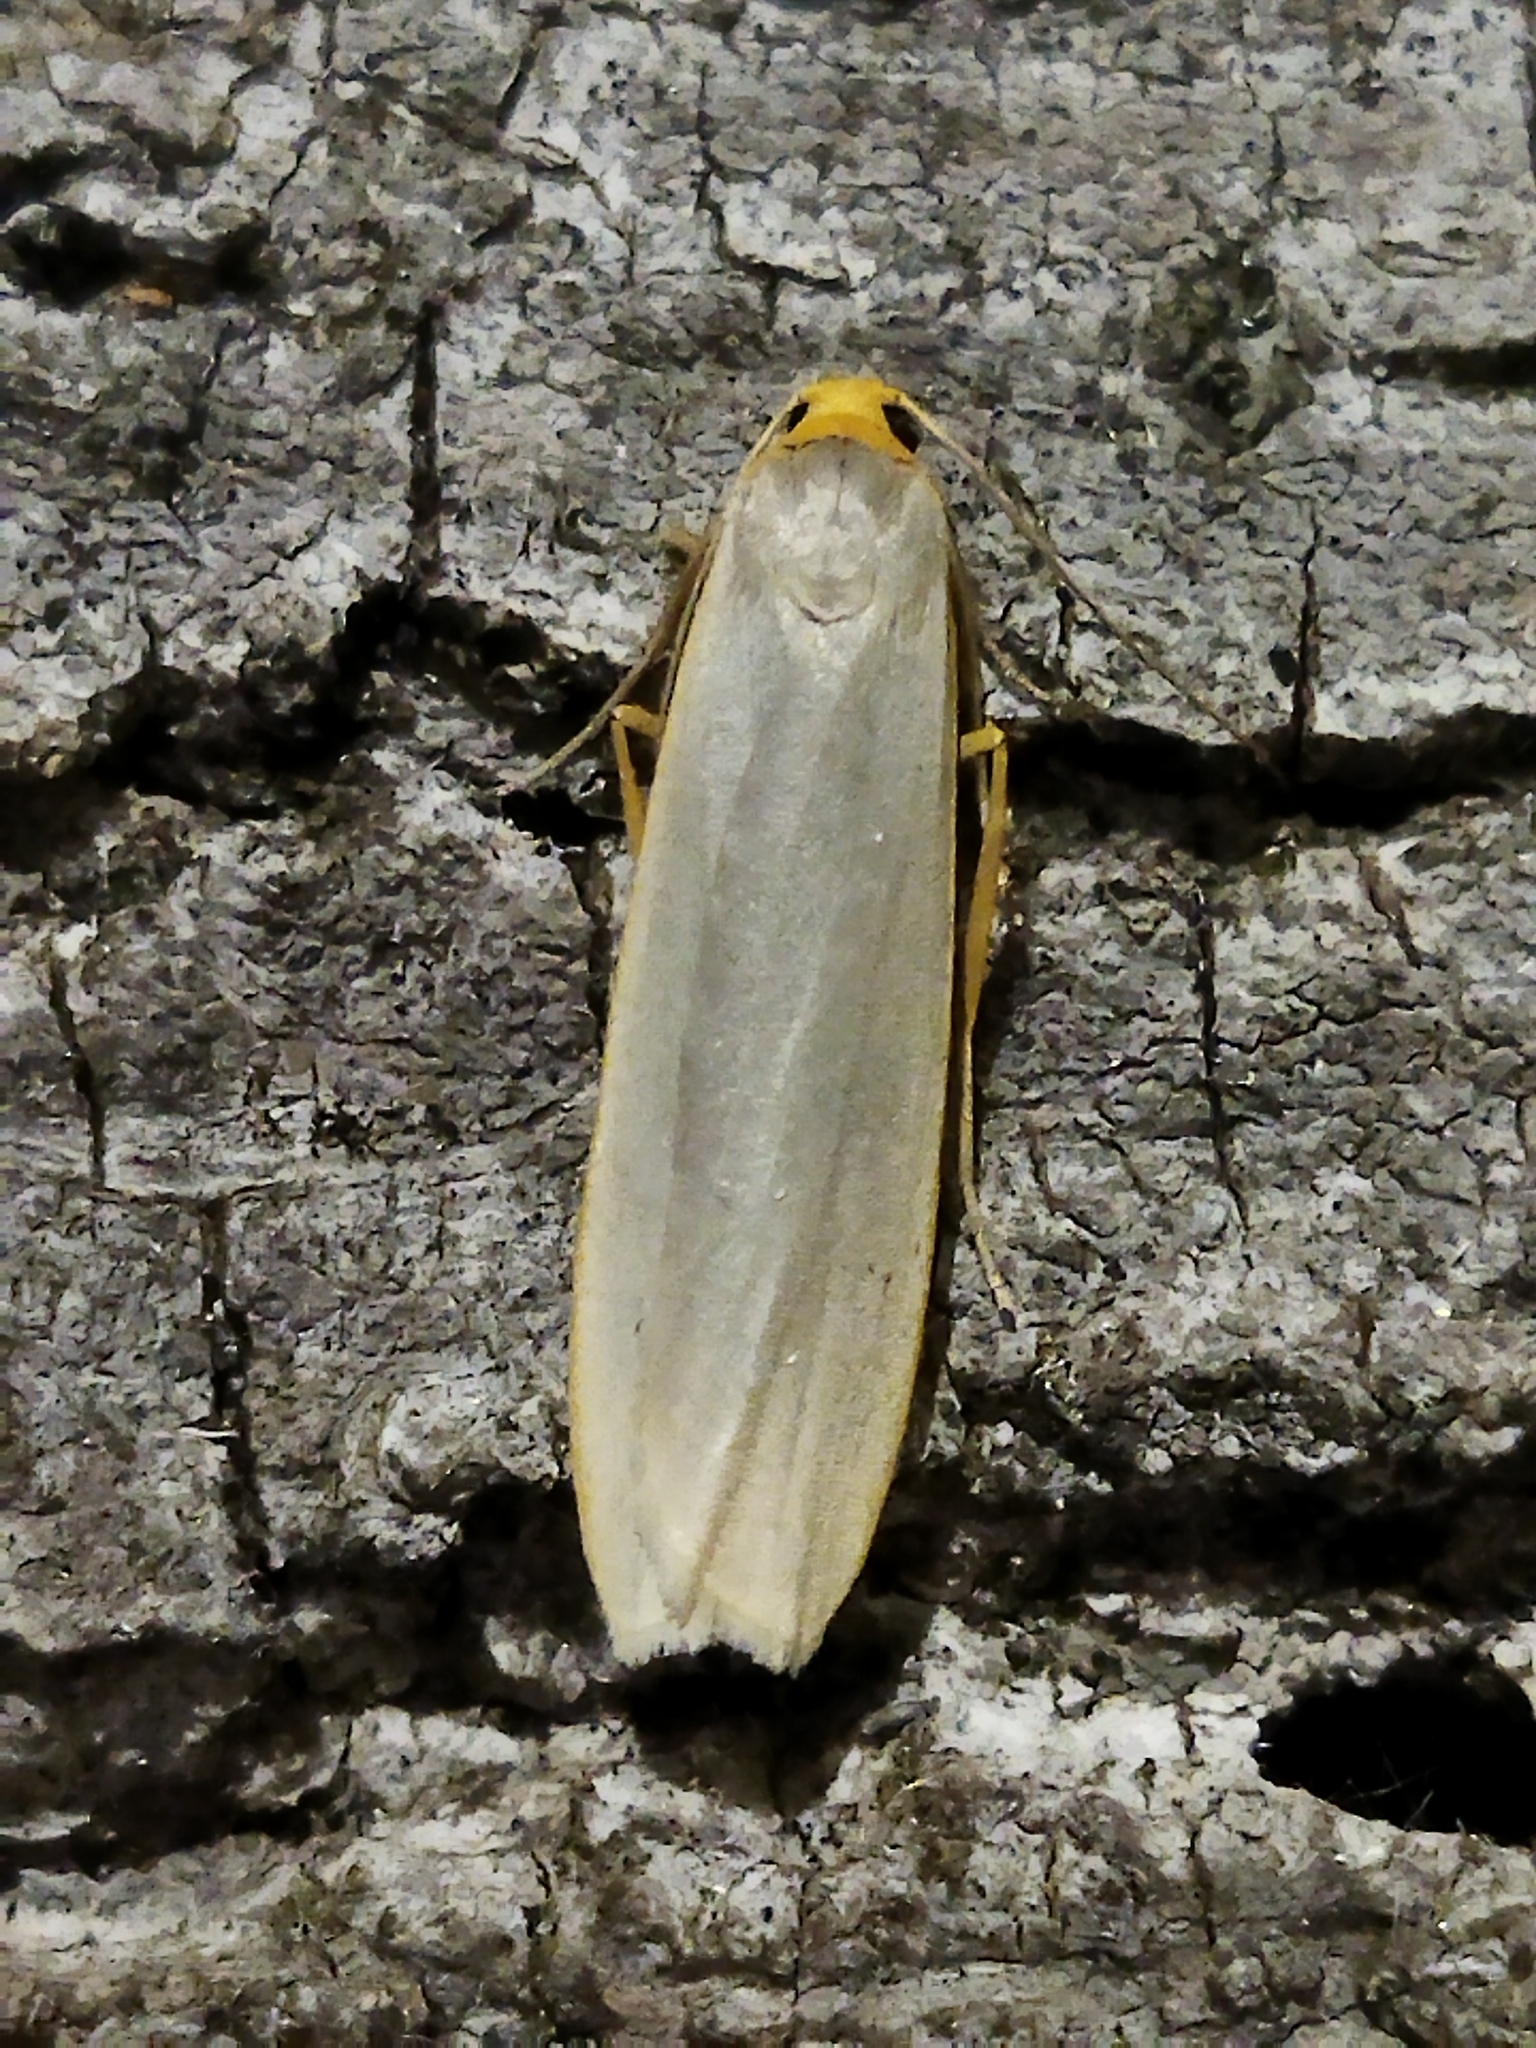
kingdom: Animalia
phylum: Arthropoda
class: Insecta
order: Lepidoptera
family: Erebidae
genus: Eilema
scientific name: Eilema caniola
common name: Hoary footman
